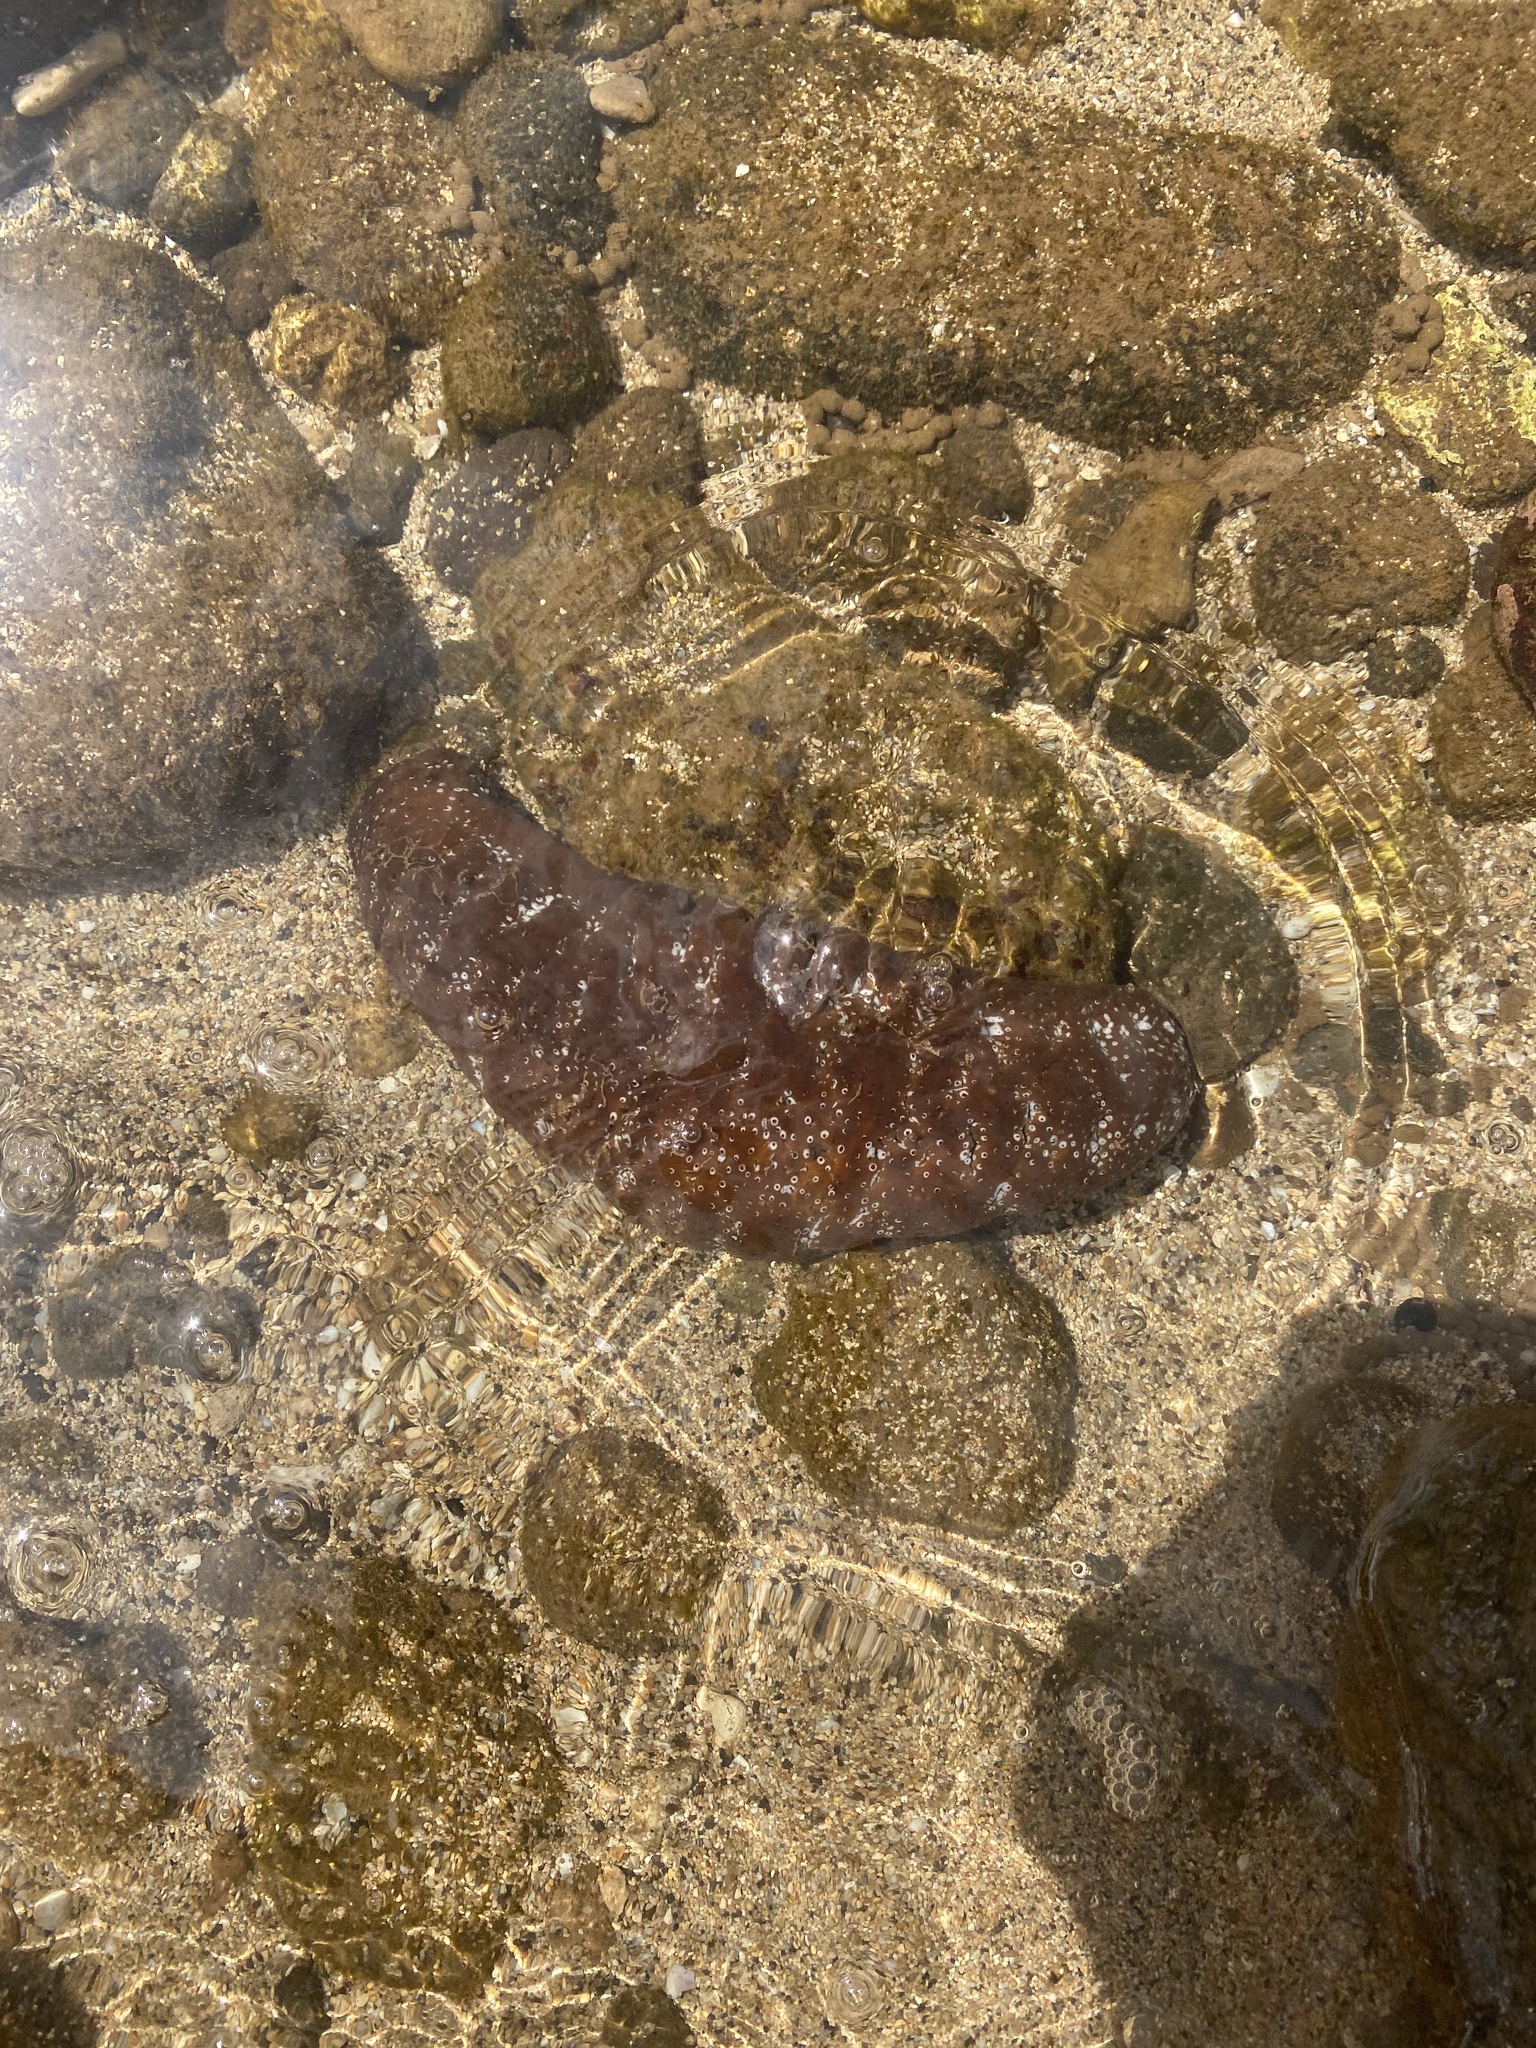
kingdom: Animalia
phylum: Echinodermata
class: Holothuroidea
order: Holothuriida
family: Holothuriidae
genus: Actinopyga
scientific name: Actinopyga varians
